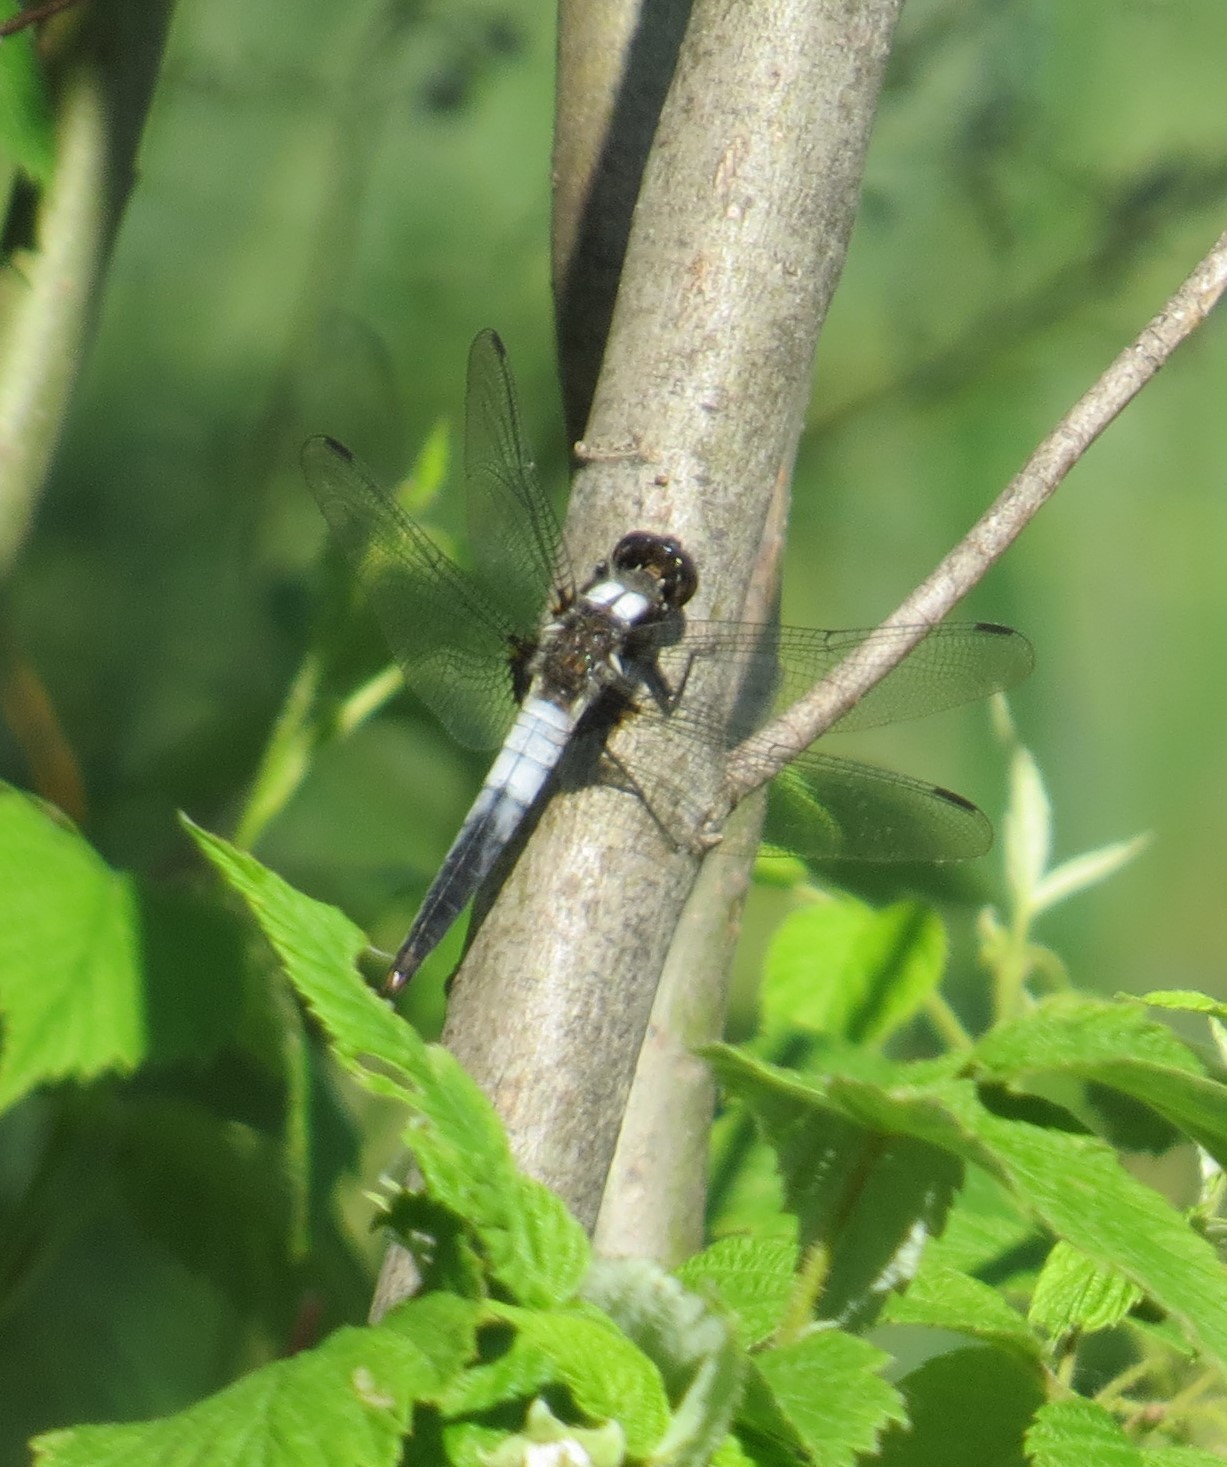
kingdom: Animalia
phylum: Arthropoda
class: Insecta
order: Odonata
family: Libellulidae
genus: Ladona
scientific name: Ladona julia
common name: Chalk-fronted corporal
